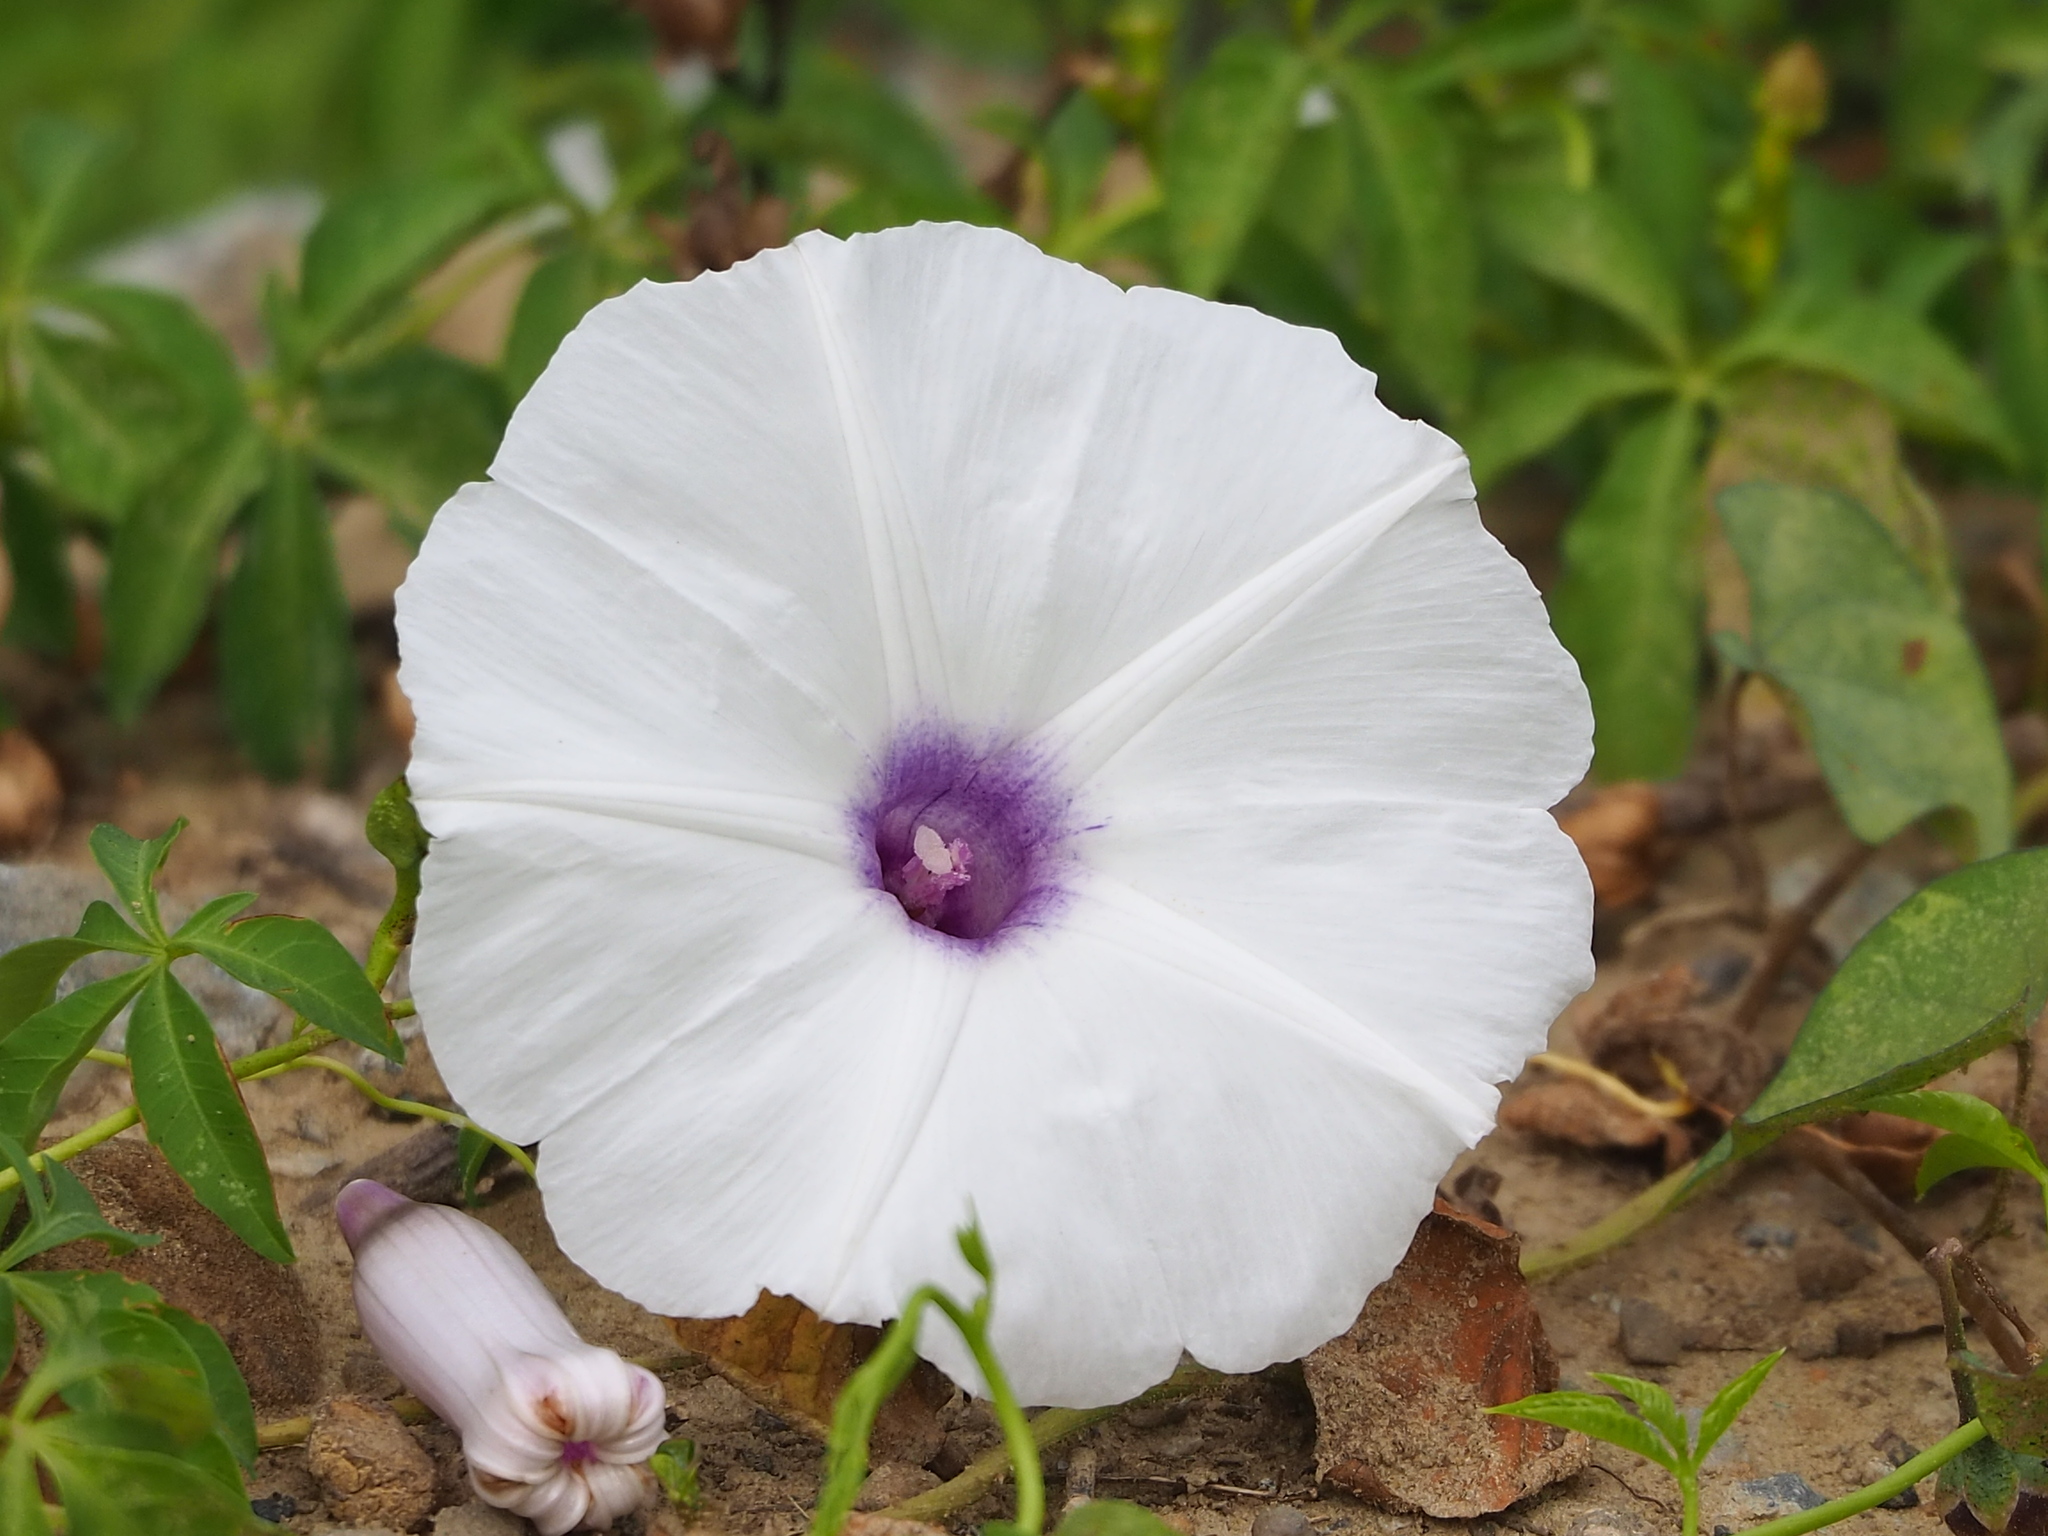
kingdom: Plantae
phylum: Tracheophyta
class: Magnoliopsida
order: Solanales
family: Convolvulaceae
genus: Ipomoea
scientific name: Ipomoea cairica
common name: Mile a minute vine
